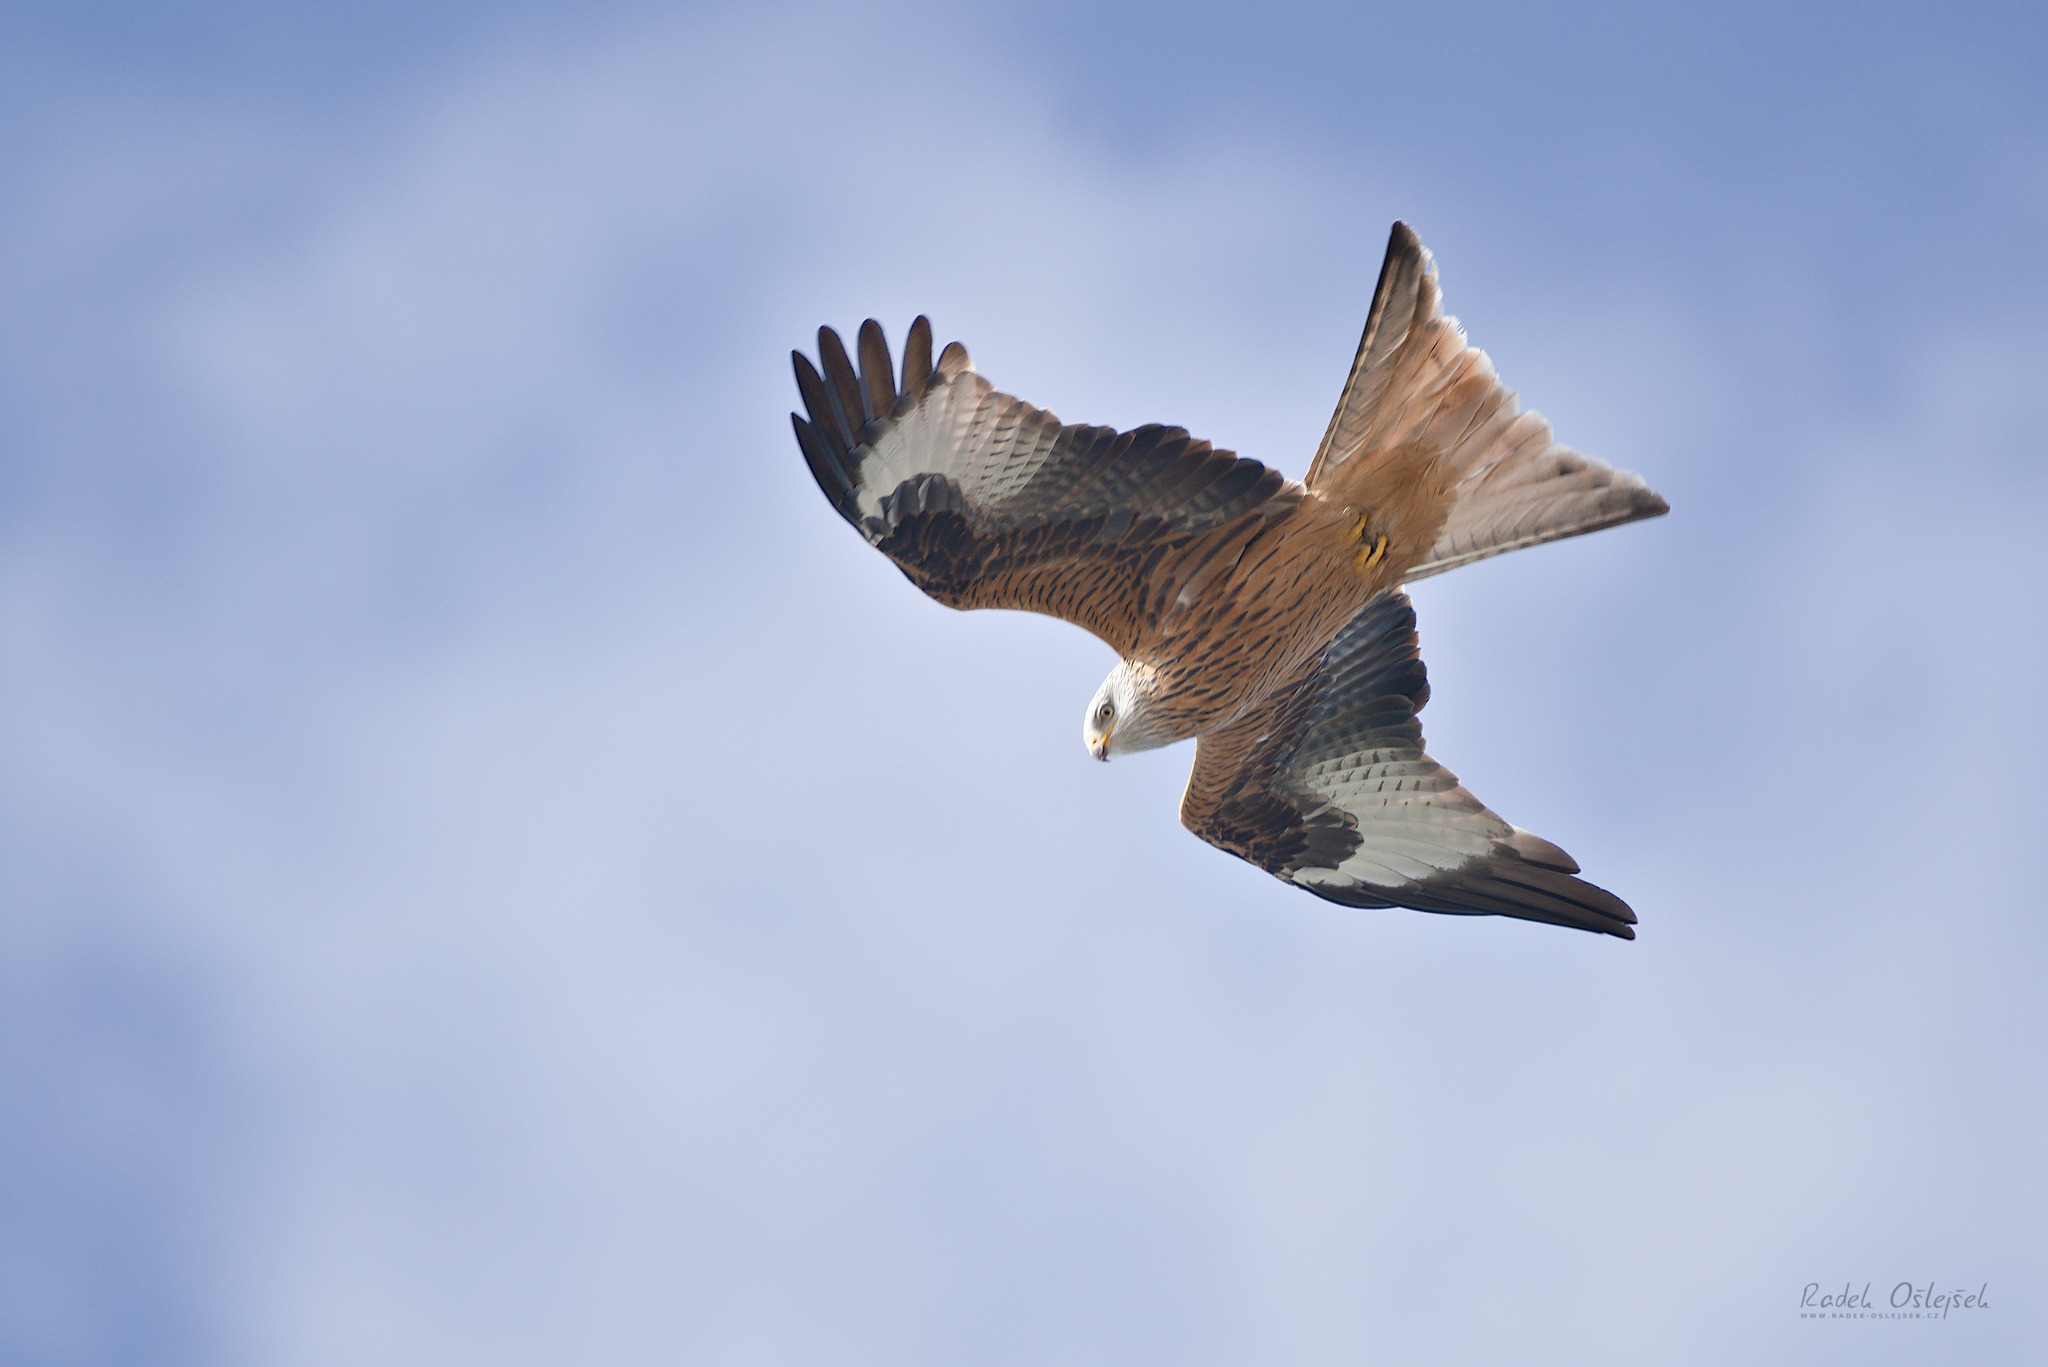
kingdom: Animalia
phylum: Chordata
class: Aves
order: Accipitriformes
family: Accipitridae
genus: Milvus
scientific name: Milvus milvus
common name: Red kite
